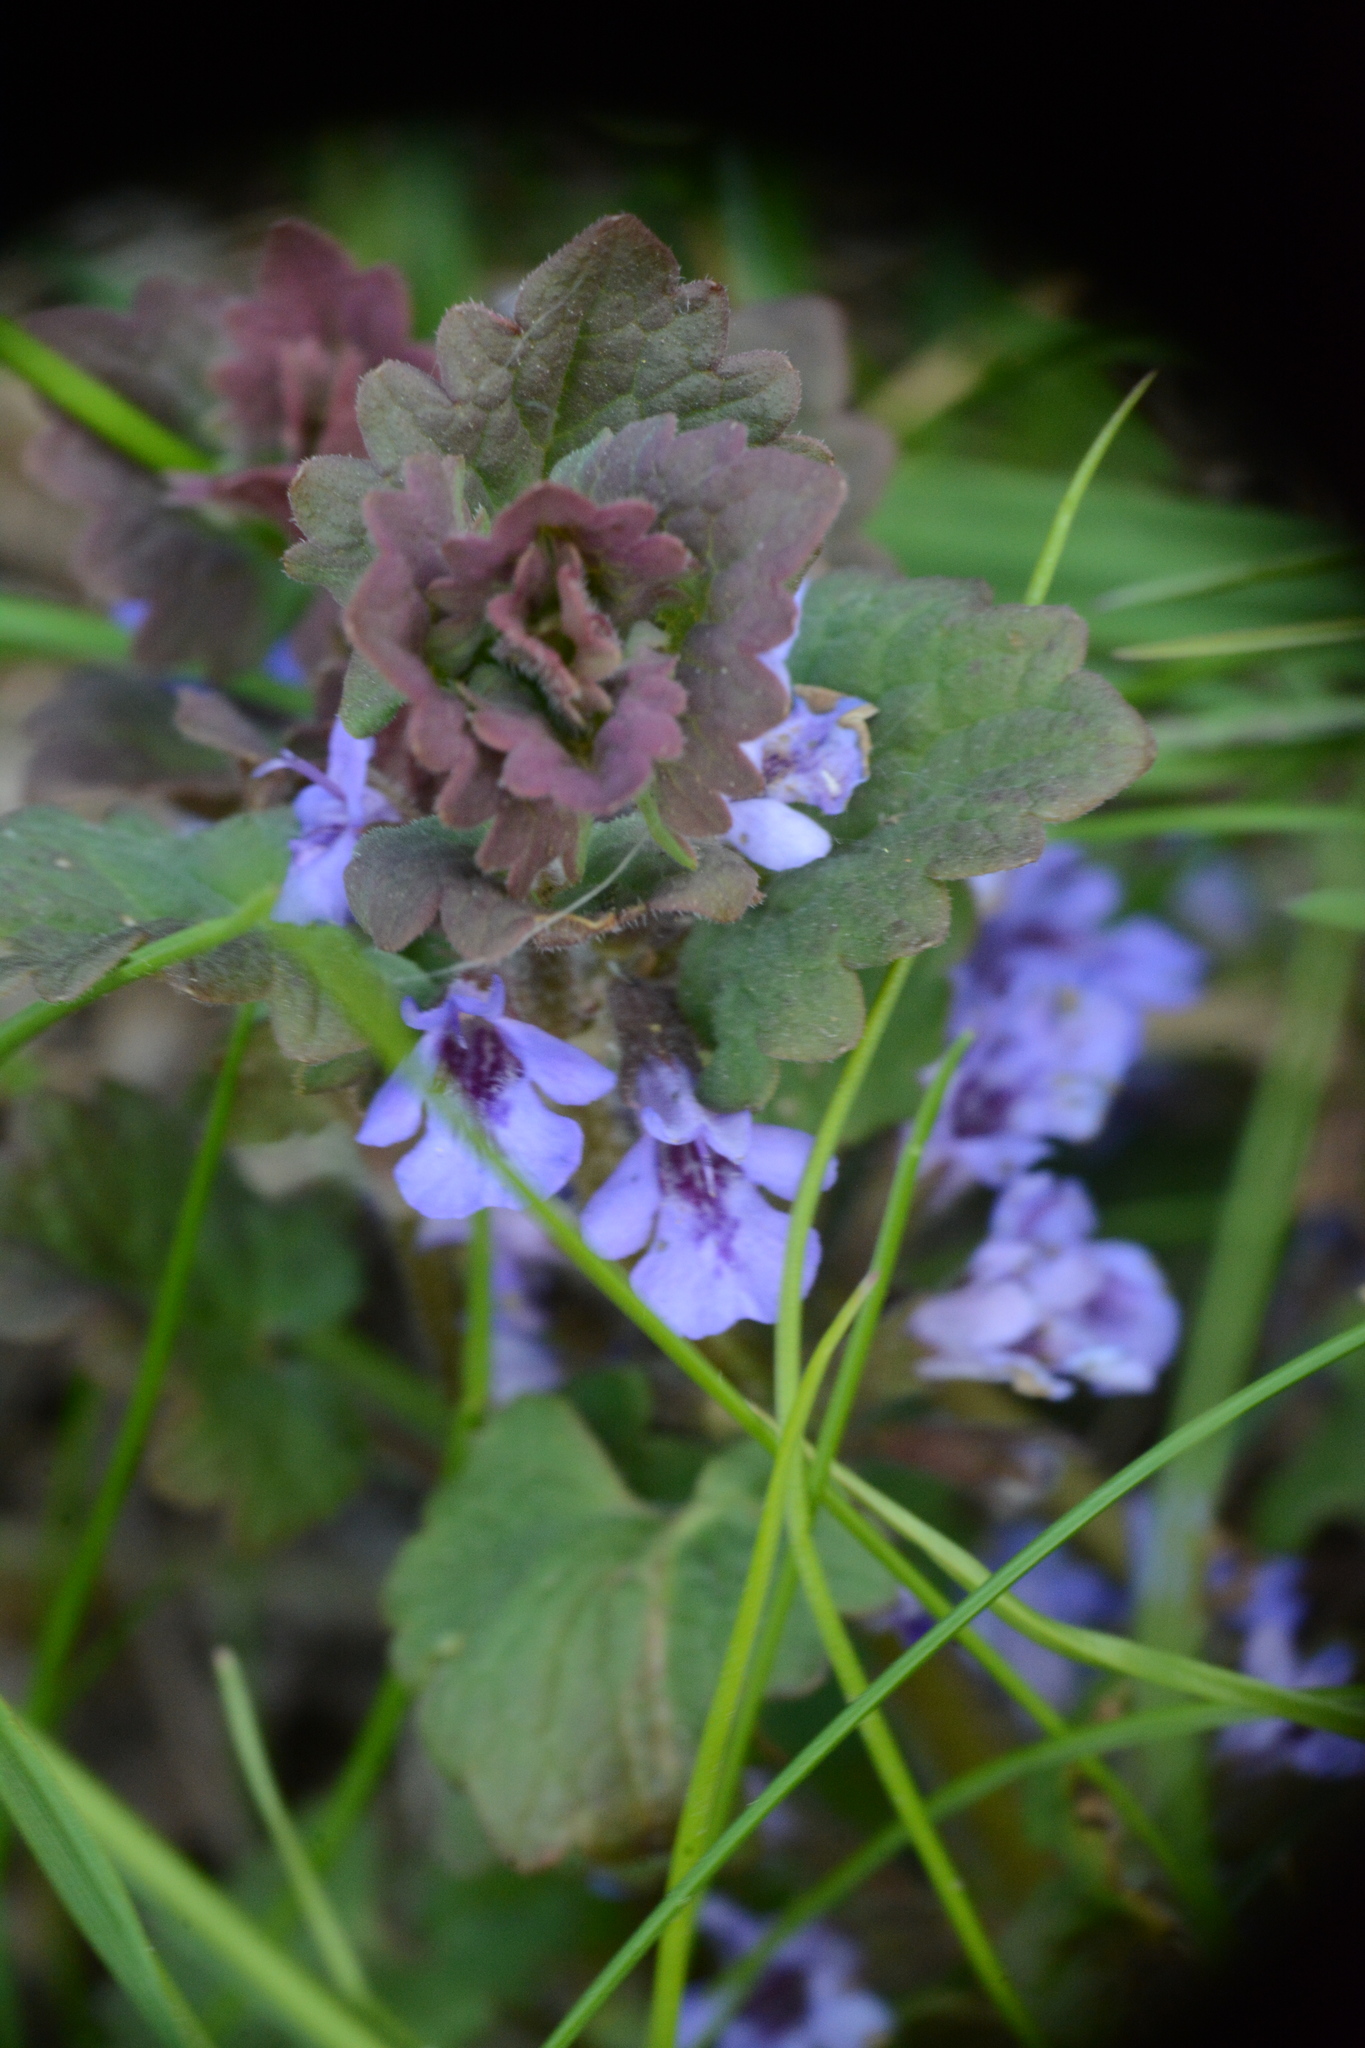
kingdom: Plantae
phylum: Tracheophyta
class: Magnoliopsida
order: Lamiales
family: Lamiaceae
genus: Glechoma
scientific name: Glechoma hederacea
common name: Ground ivy
